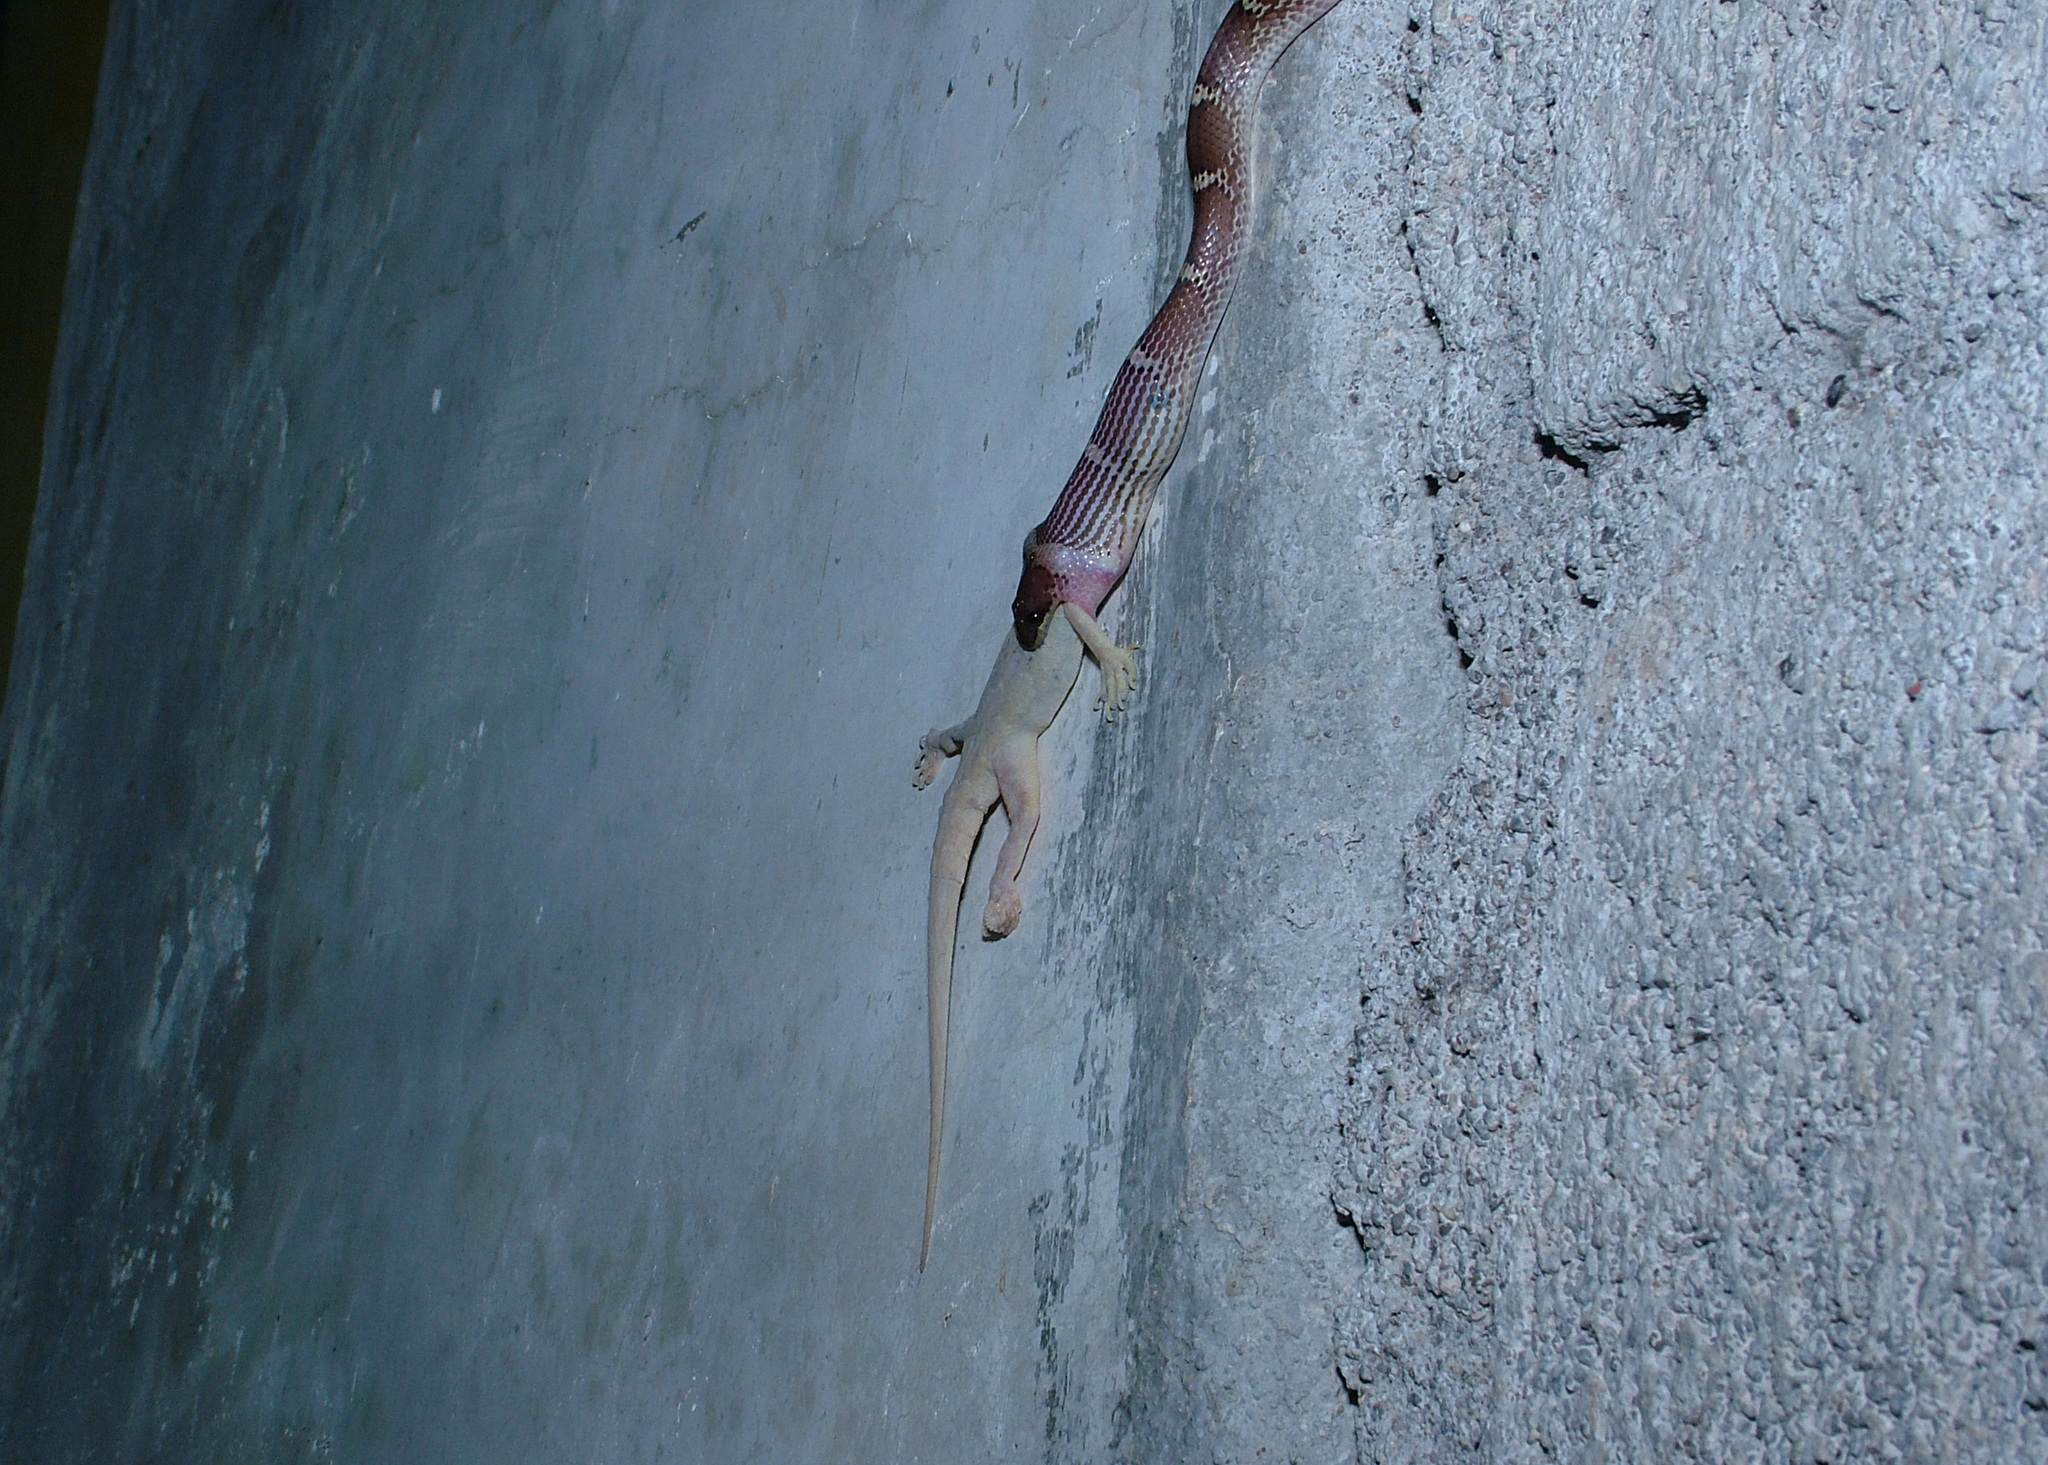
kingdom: Animalia
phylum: Chordata
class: Squamata
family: Colubridae
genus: Lycodon
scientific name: Lycodon aulicus
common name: Common wolf snake
